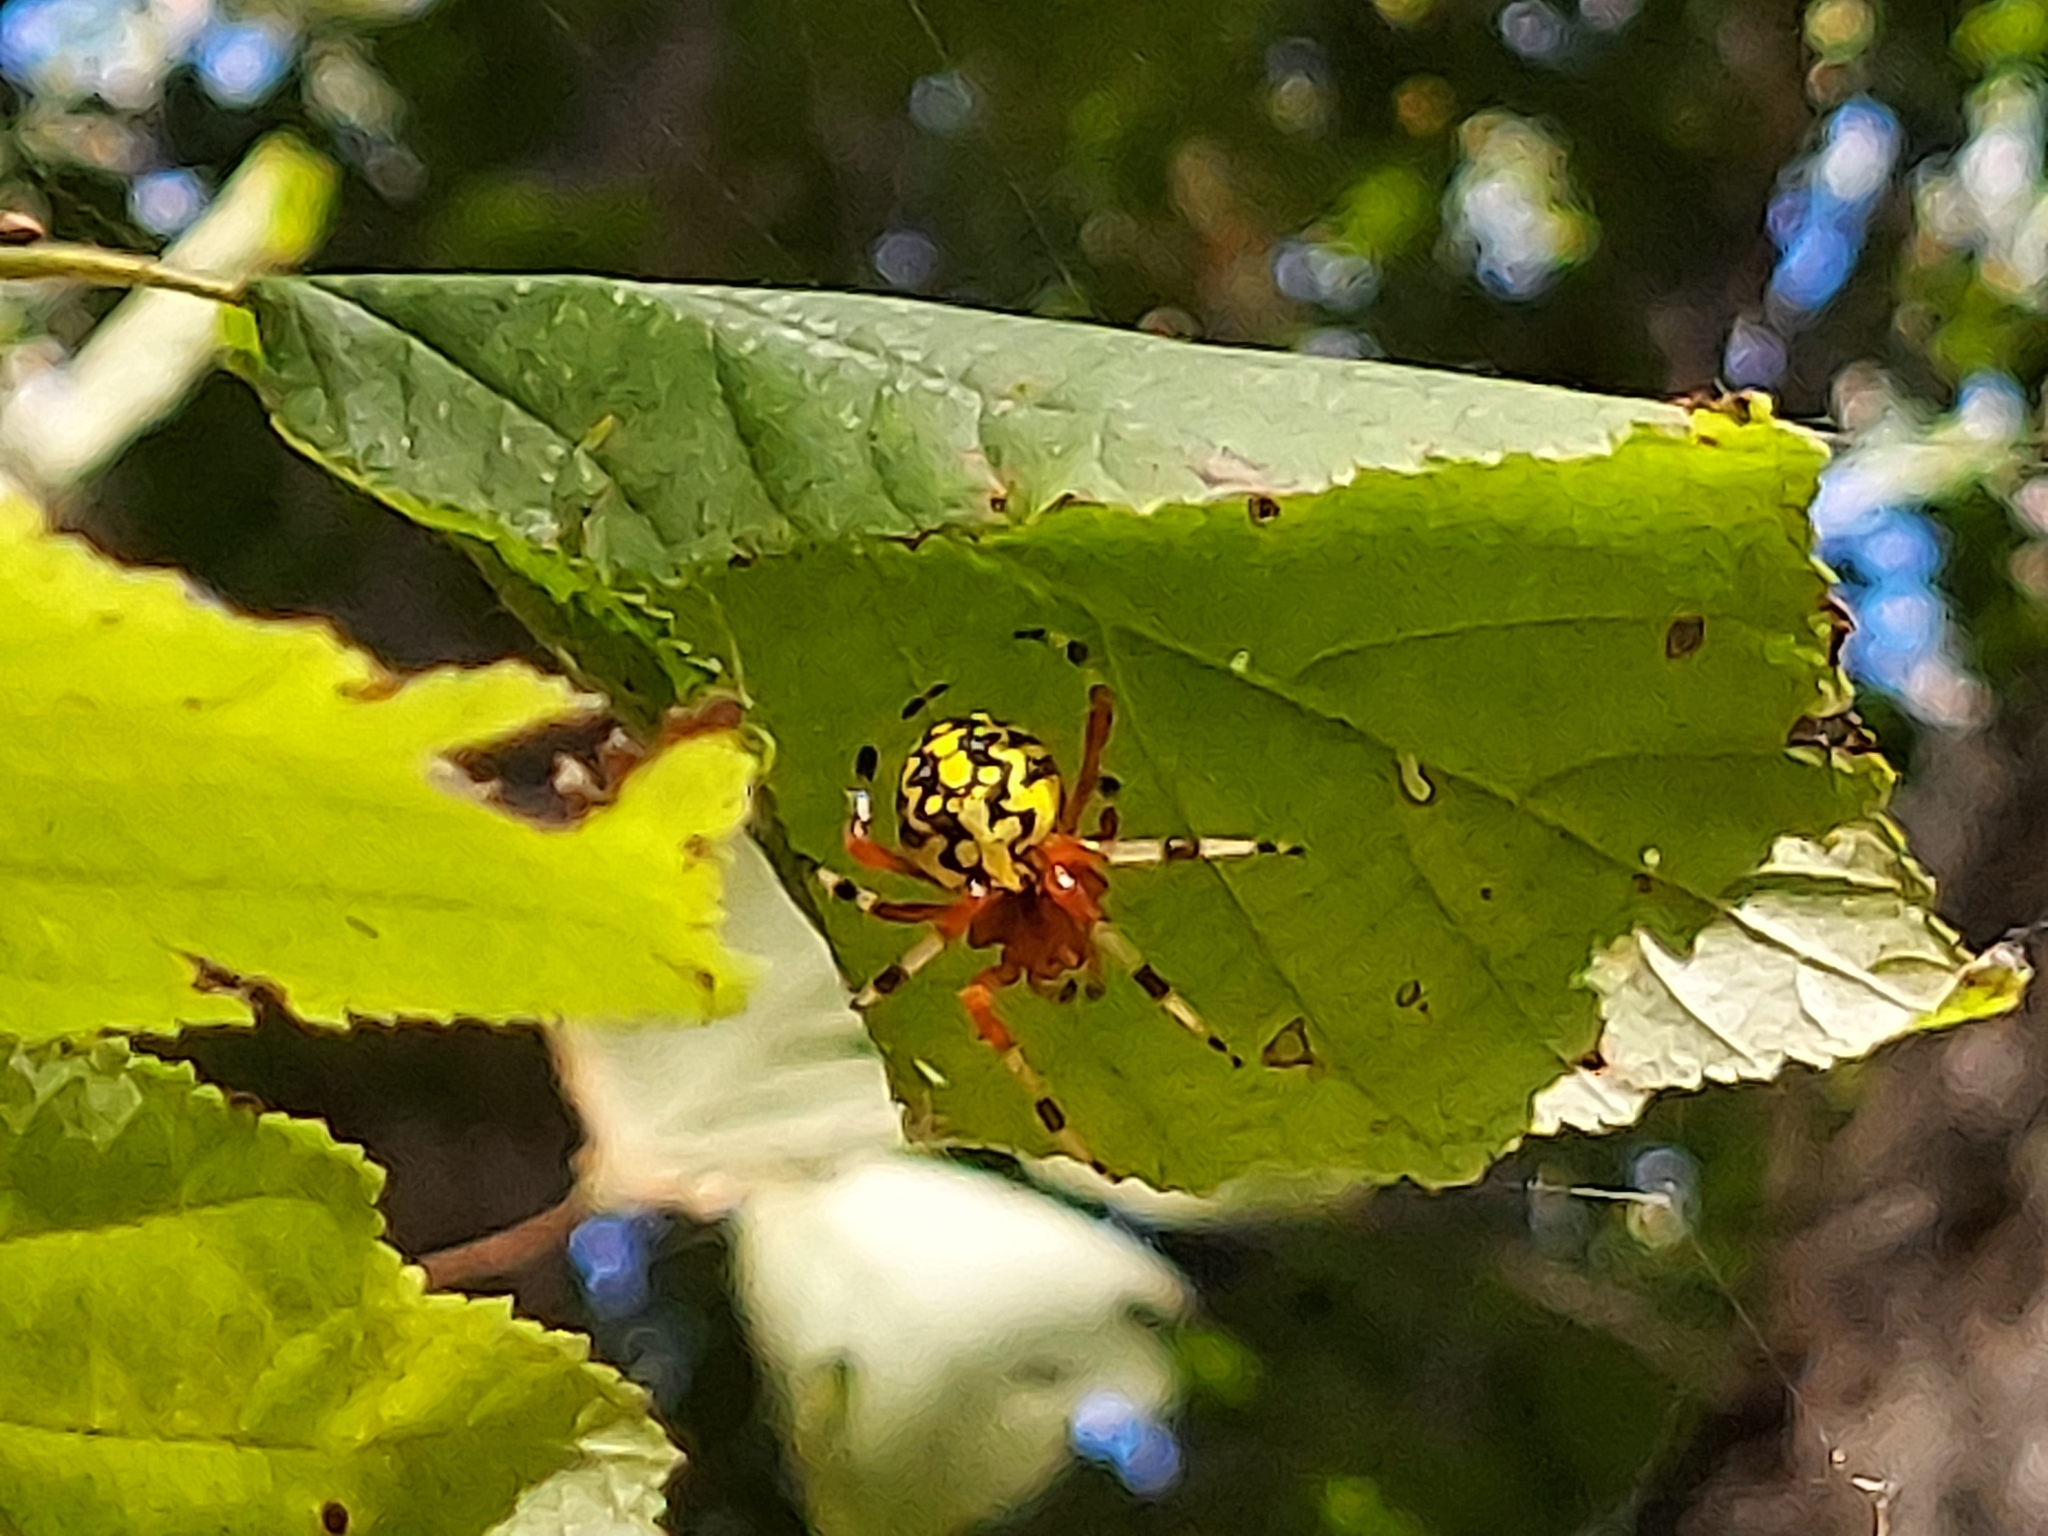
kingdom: Animalia
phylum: Arthropoda
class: Arachnida
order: Araneae
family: Araneidae
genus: Araneus
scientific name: Araneus marmoreus
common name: Marbled orbweaver
